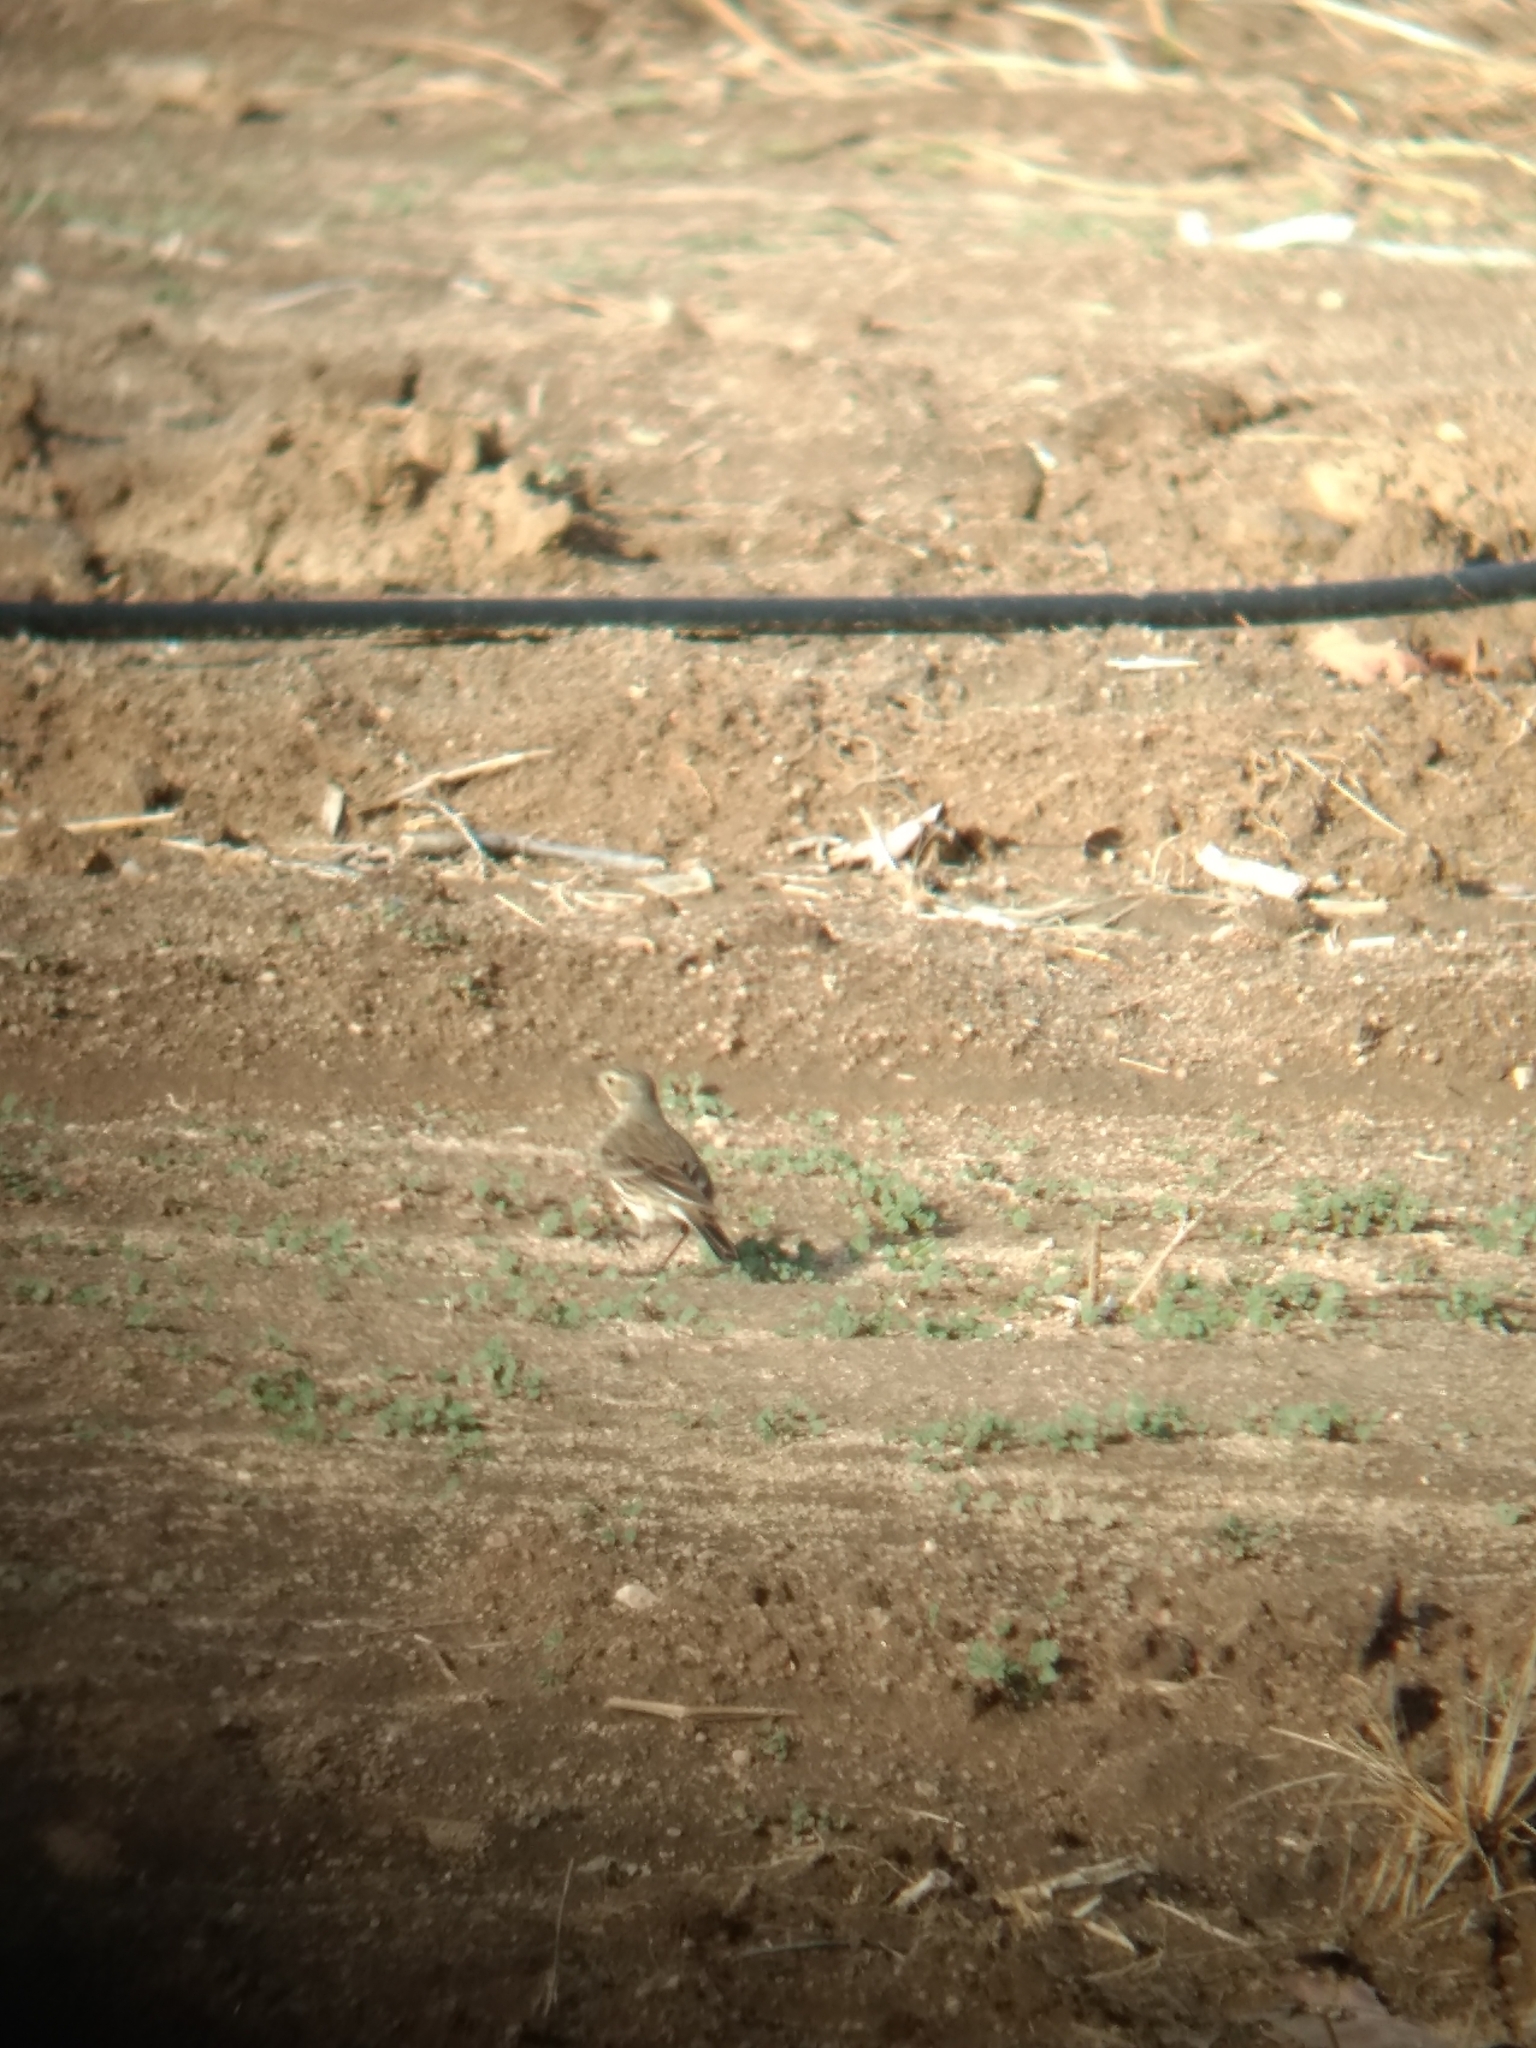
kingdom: Animalia
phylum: Chordata
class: Aves
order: Passeriformes
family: Motacillidae
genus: Anthus
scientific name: Anthus rubescens
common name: Buff-bellied pipit
